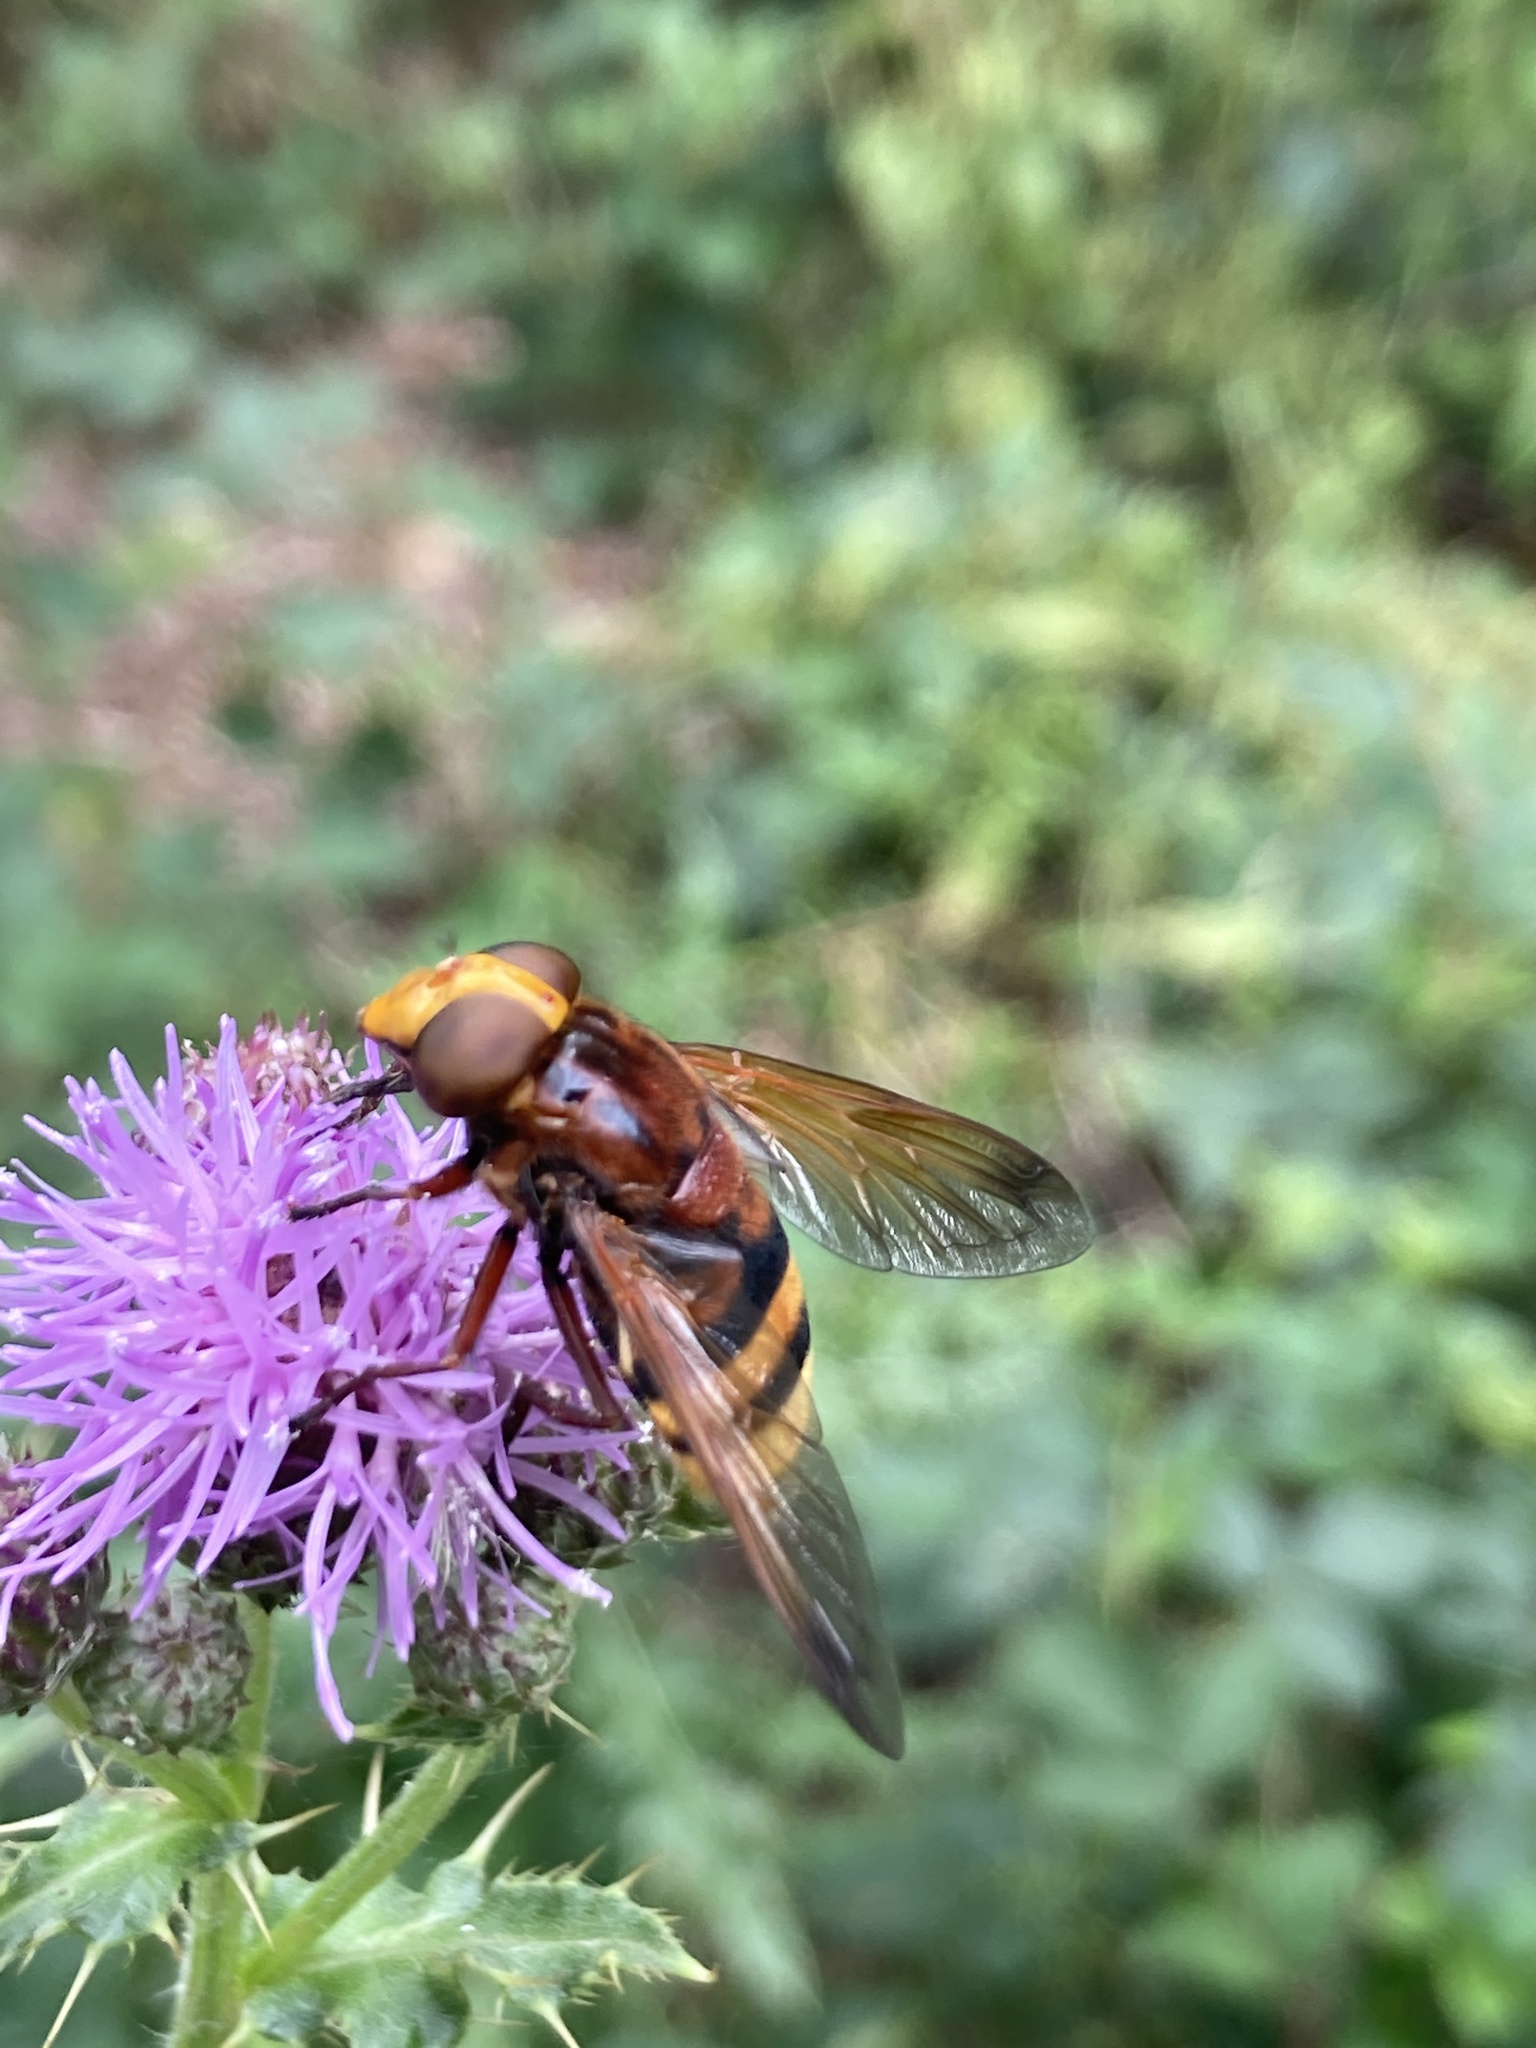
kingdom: Animalia
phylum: Arthropoda
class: Insecta
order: Diptera
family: Syrphidae
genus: Volucella
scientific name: Volucella zonaria
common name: Hornet hoverfly
